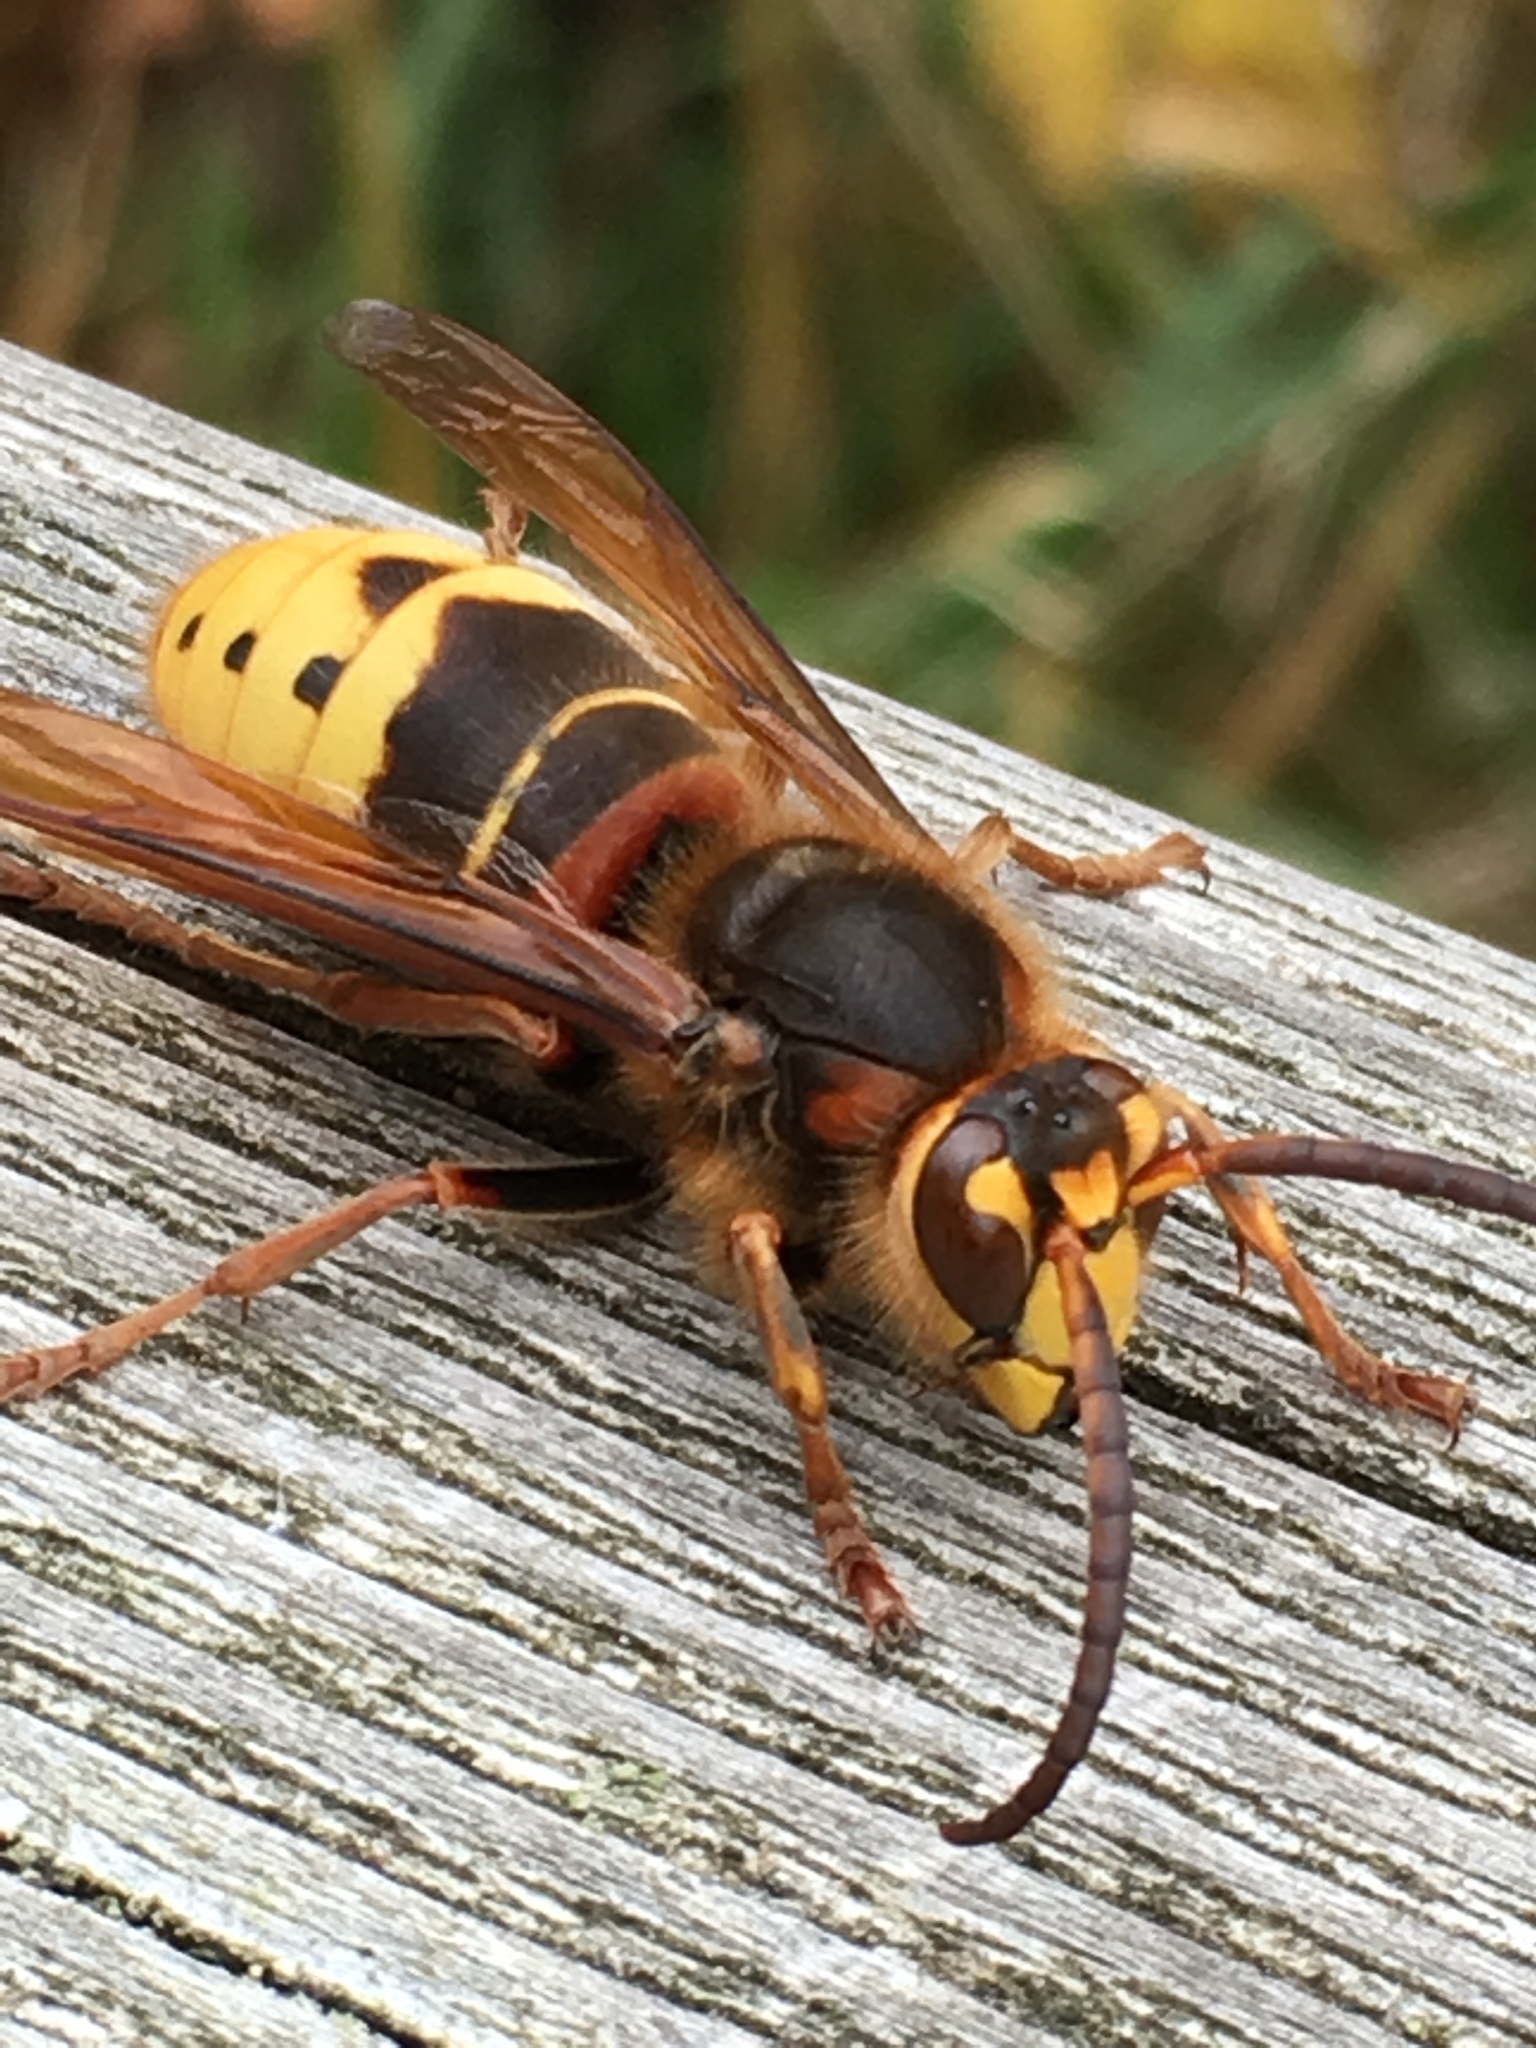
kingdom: Animalia
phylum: Arthropoda
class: Insecta
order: Hymenoptera
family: Vespidae
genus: Vespa
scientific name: Vespa crabro
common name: Hornet
